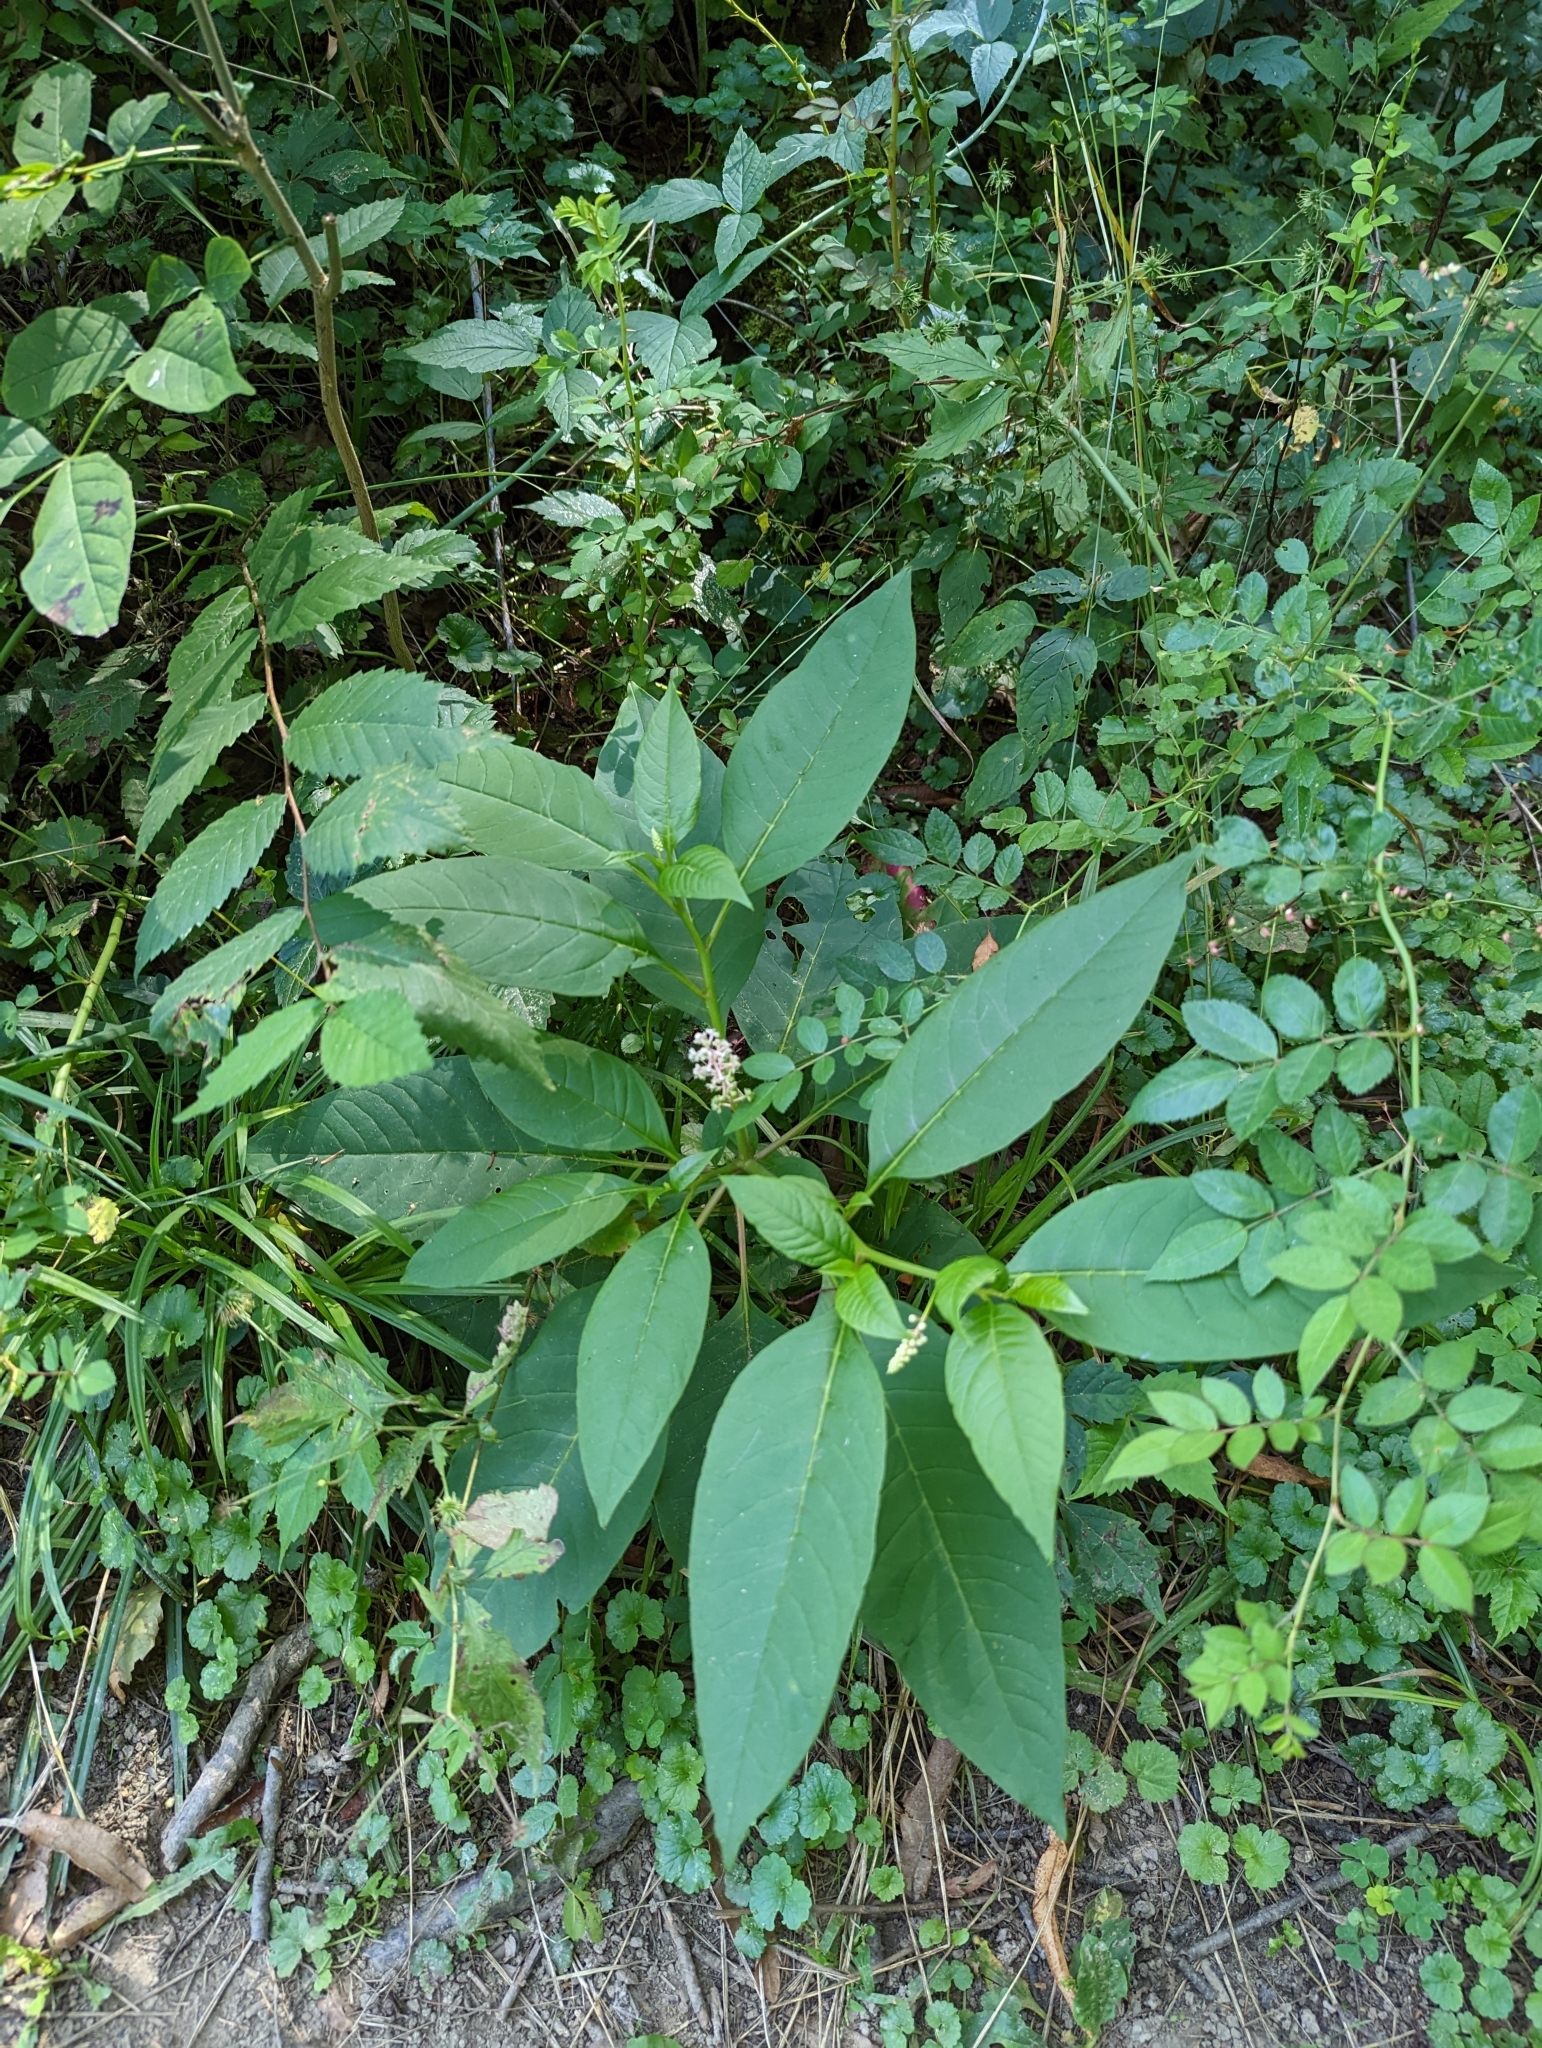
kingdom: Plantae
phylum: Tracheophyta
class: Magnoliopsida
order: Caryophyllales
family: Phytolaccaceae
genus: Phytolacca
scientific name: Phytolacca americana
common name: American pokeweed
